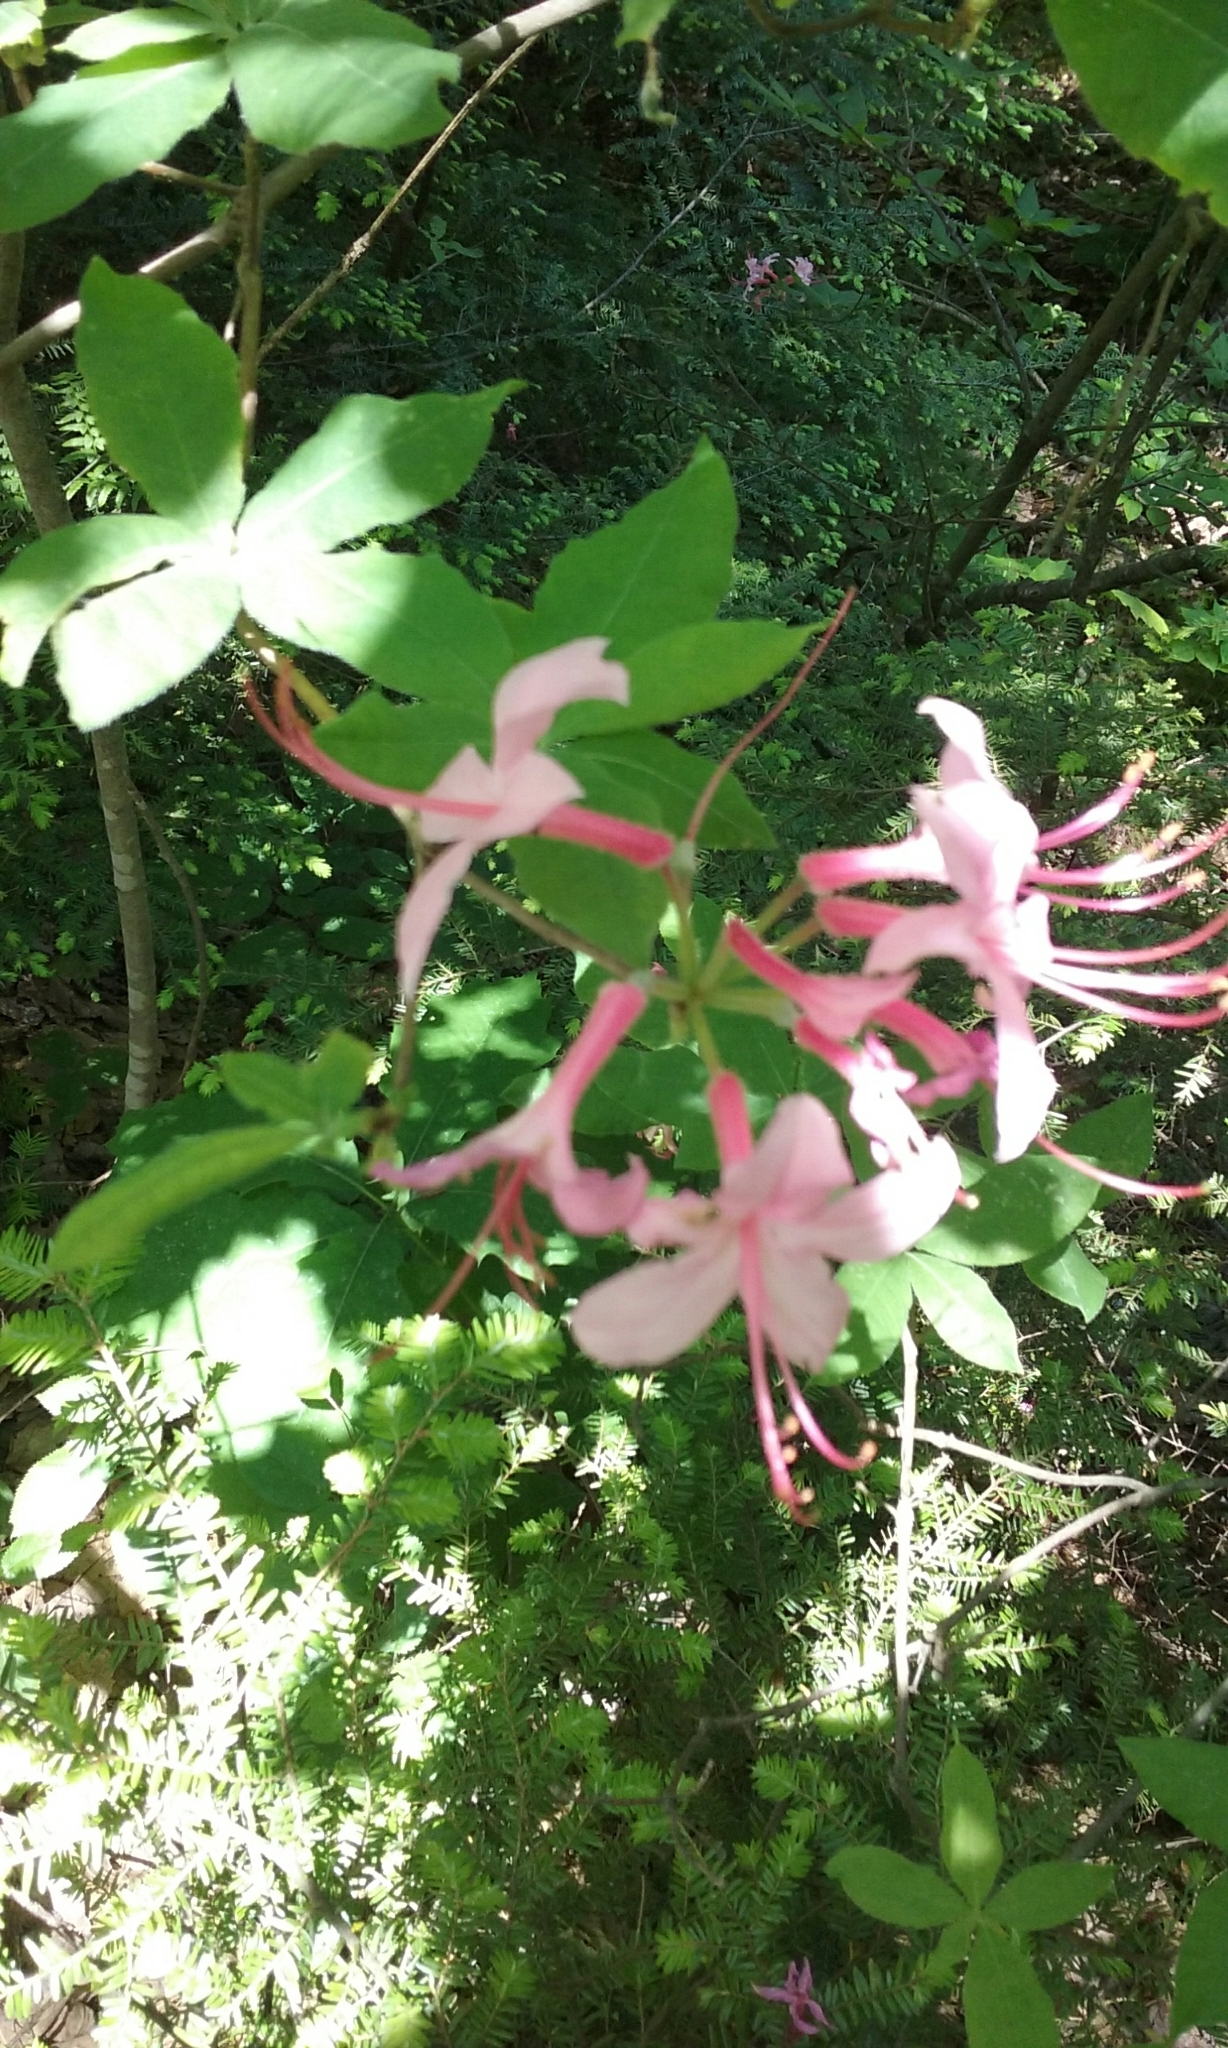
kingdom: Plantae
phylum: Tracheophyta
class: Magnoliopsida
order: Ericales
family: Ericaceae
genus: Rhododendron
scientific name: Rhododendron roseum
